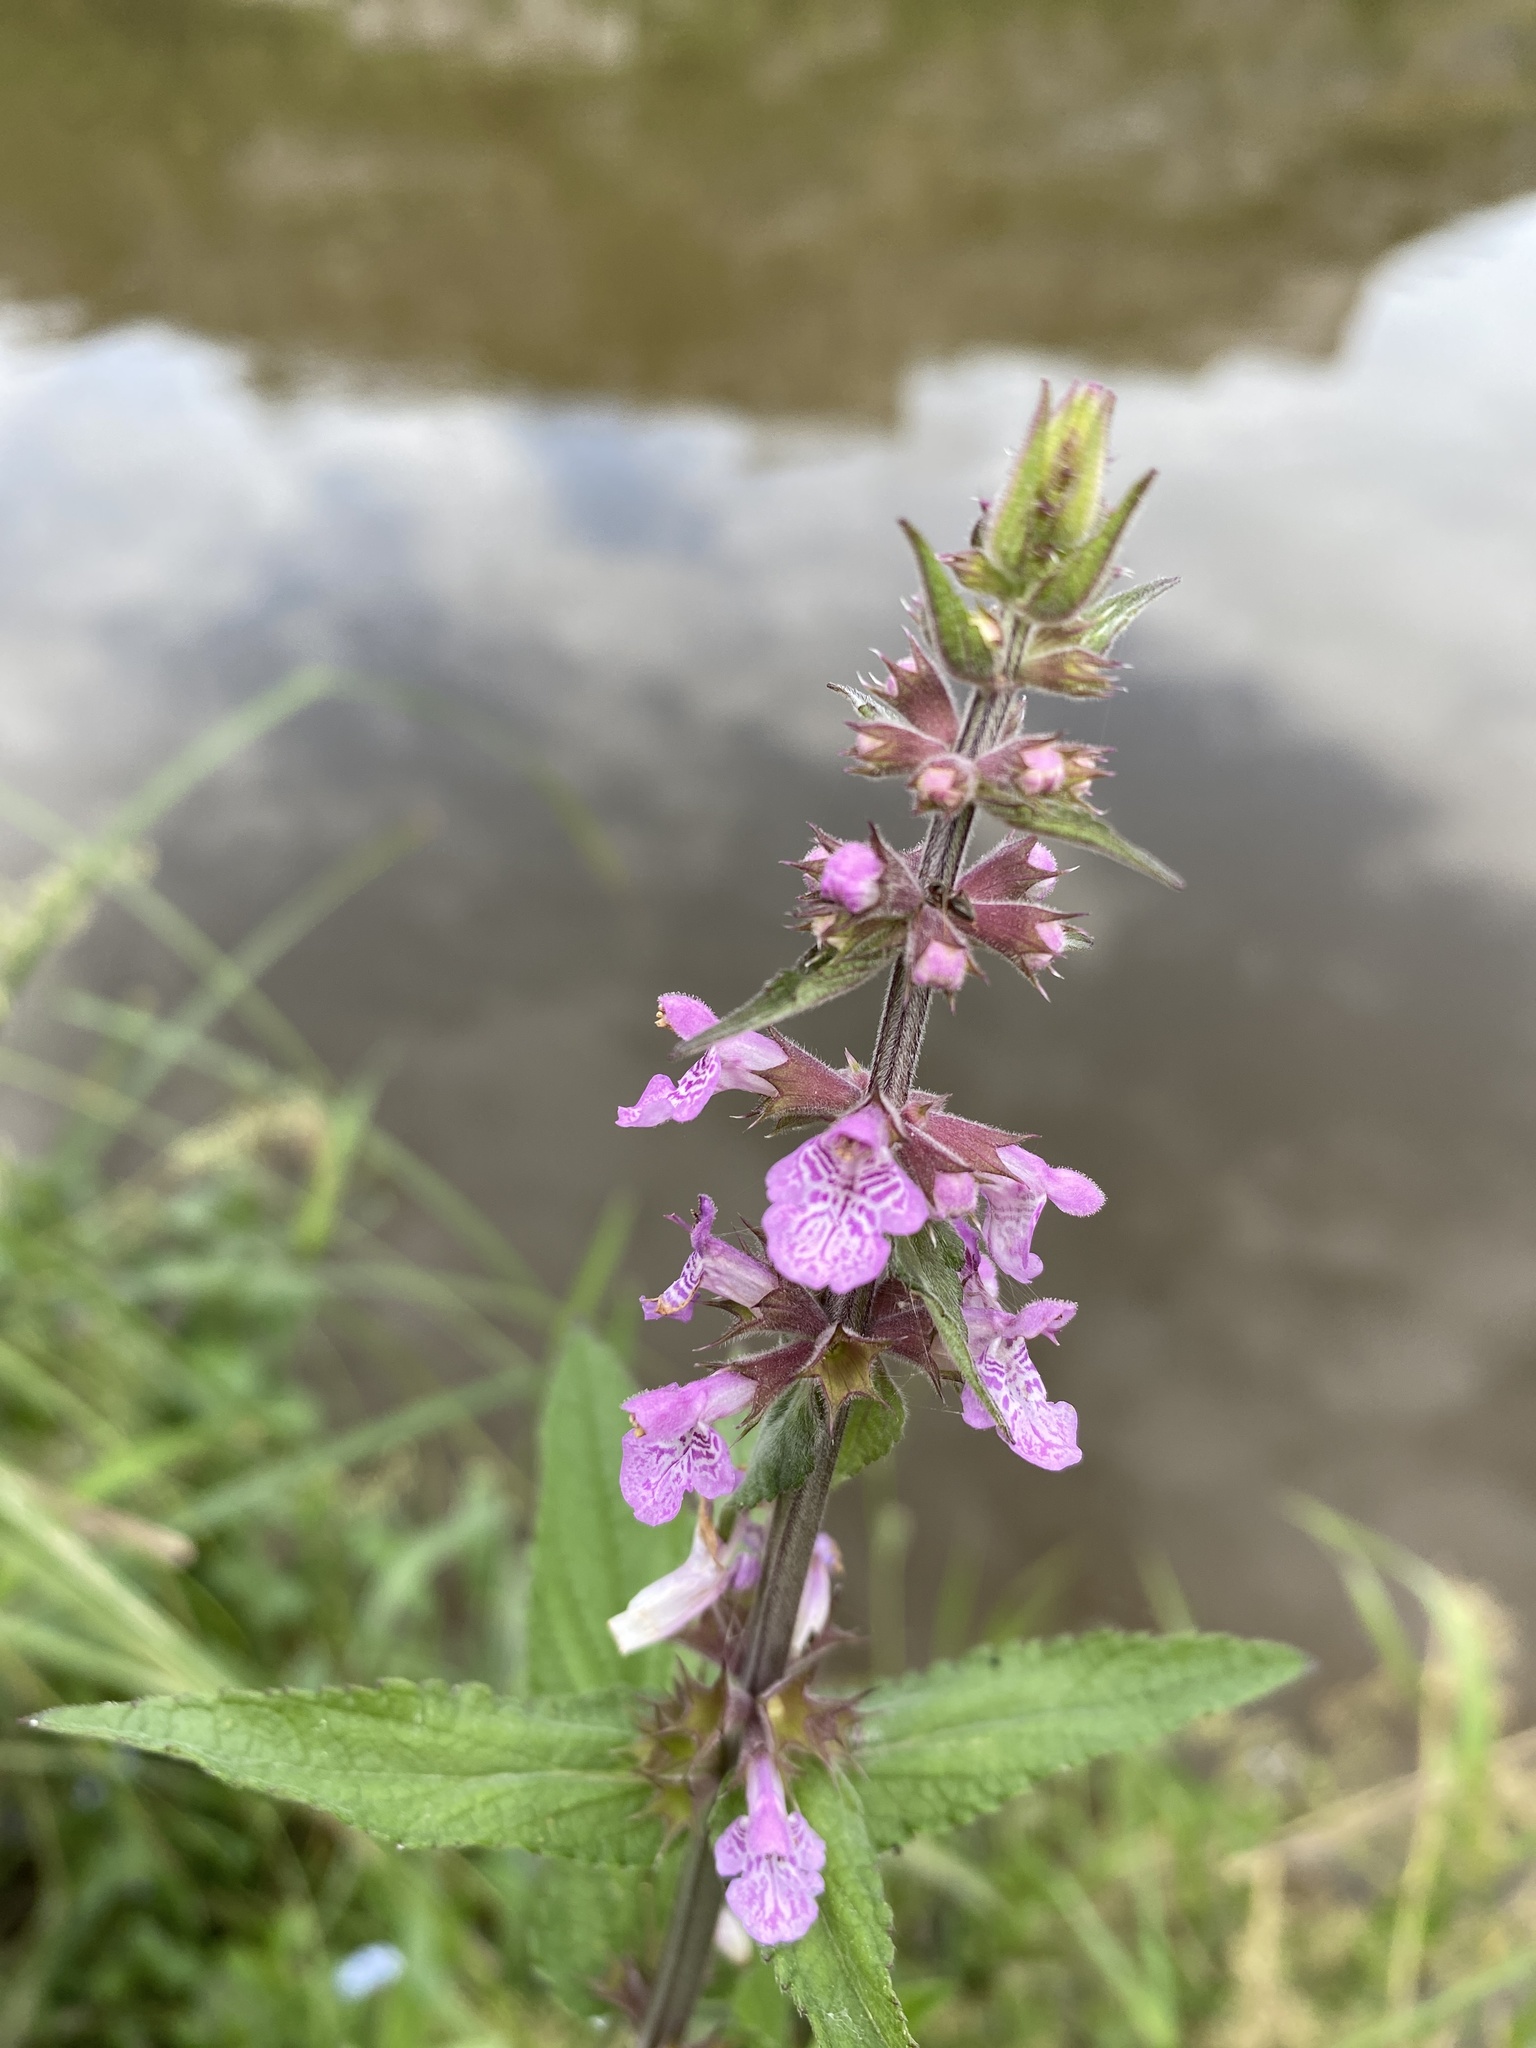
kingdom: Plantae
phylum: Tracheophyta
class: Magnoliopsida
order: Lamiales
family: Lamiaceae
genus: Stachys
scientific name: Stachys palustris
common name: Marsh woundwort
